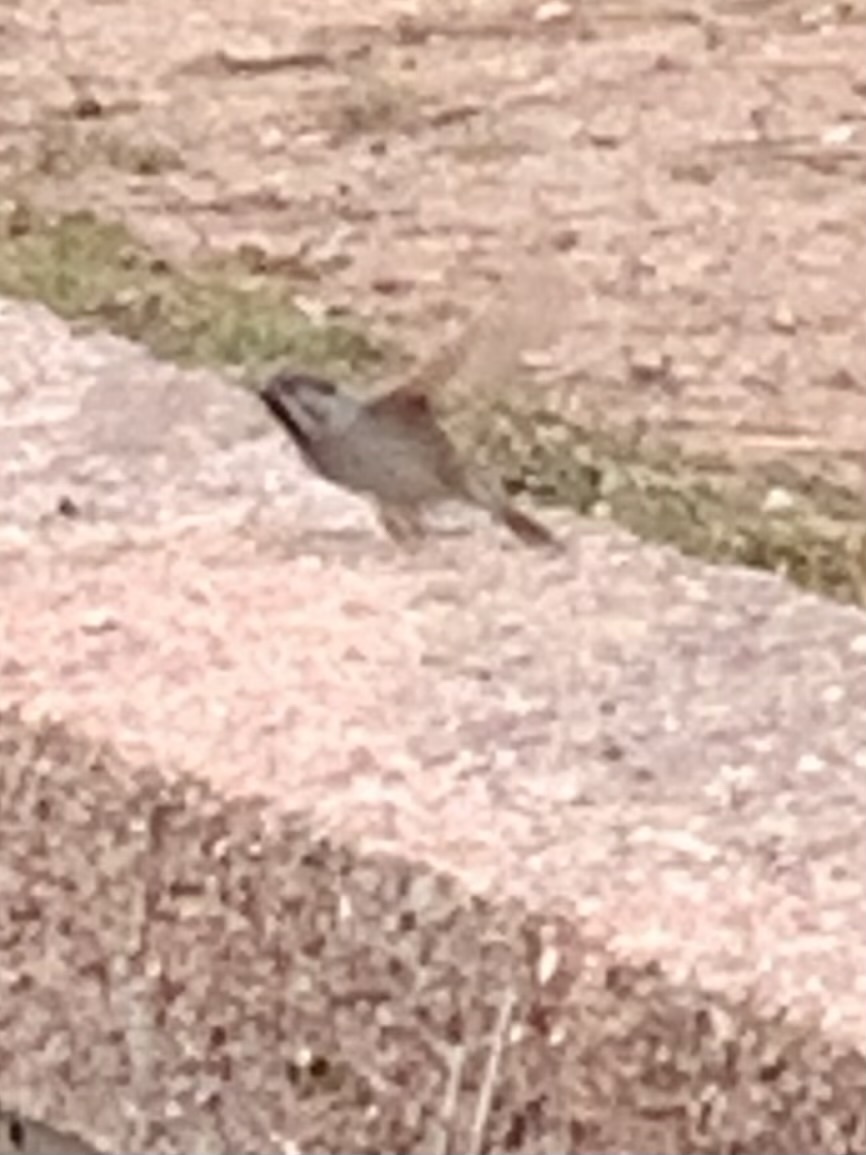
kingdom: Animalia
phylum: Chordata
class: Aves
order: Passeriformes
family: Passeridae
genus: Passer
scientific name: Passer montanus
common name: Eurasian tree sparrow
